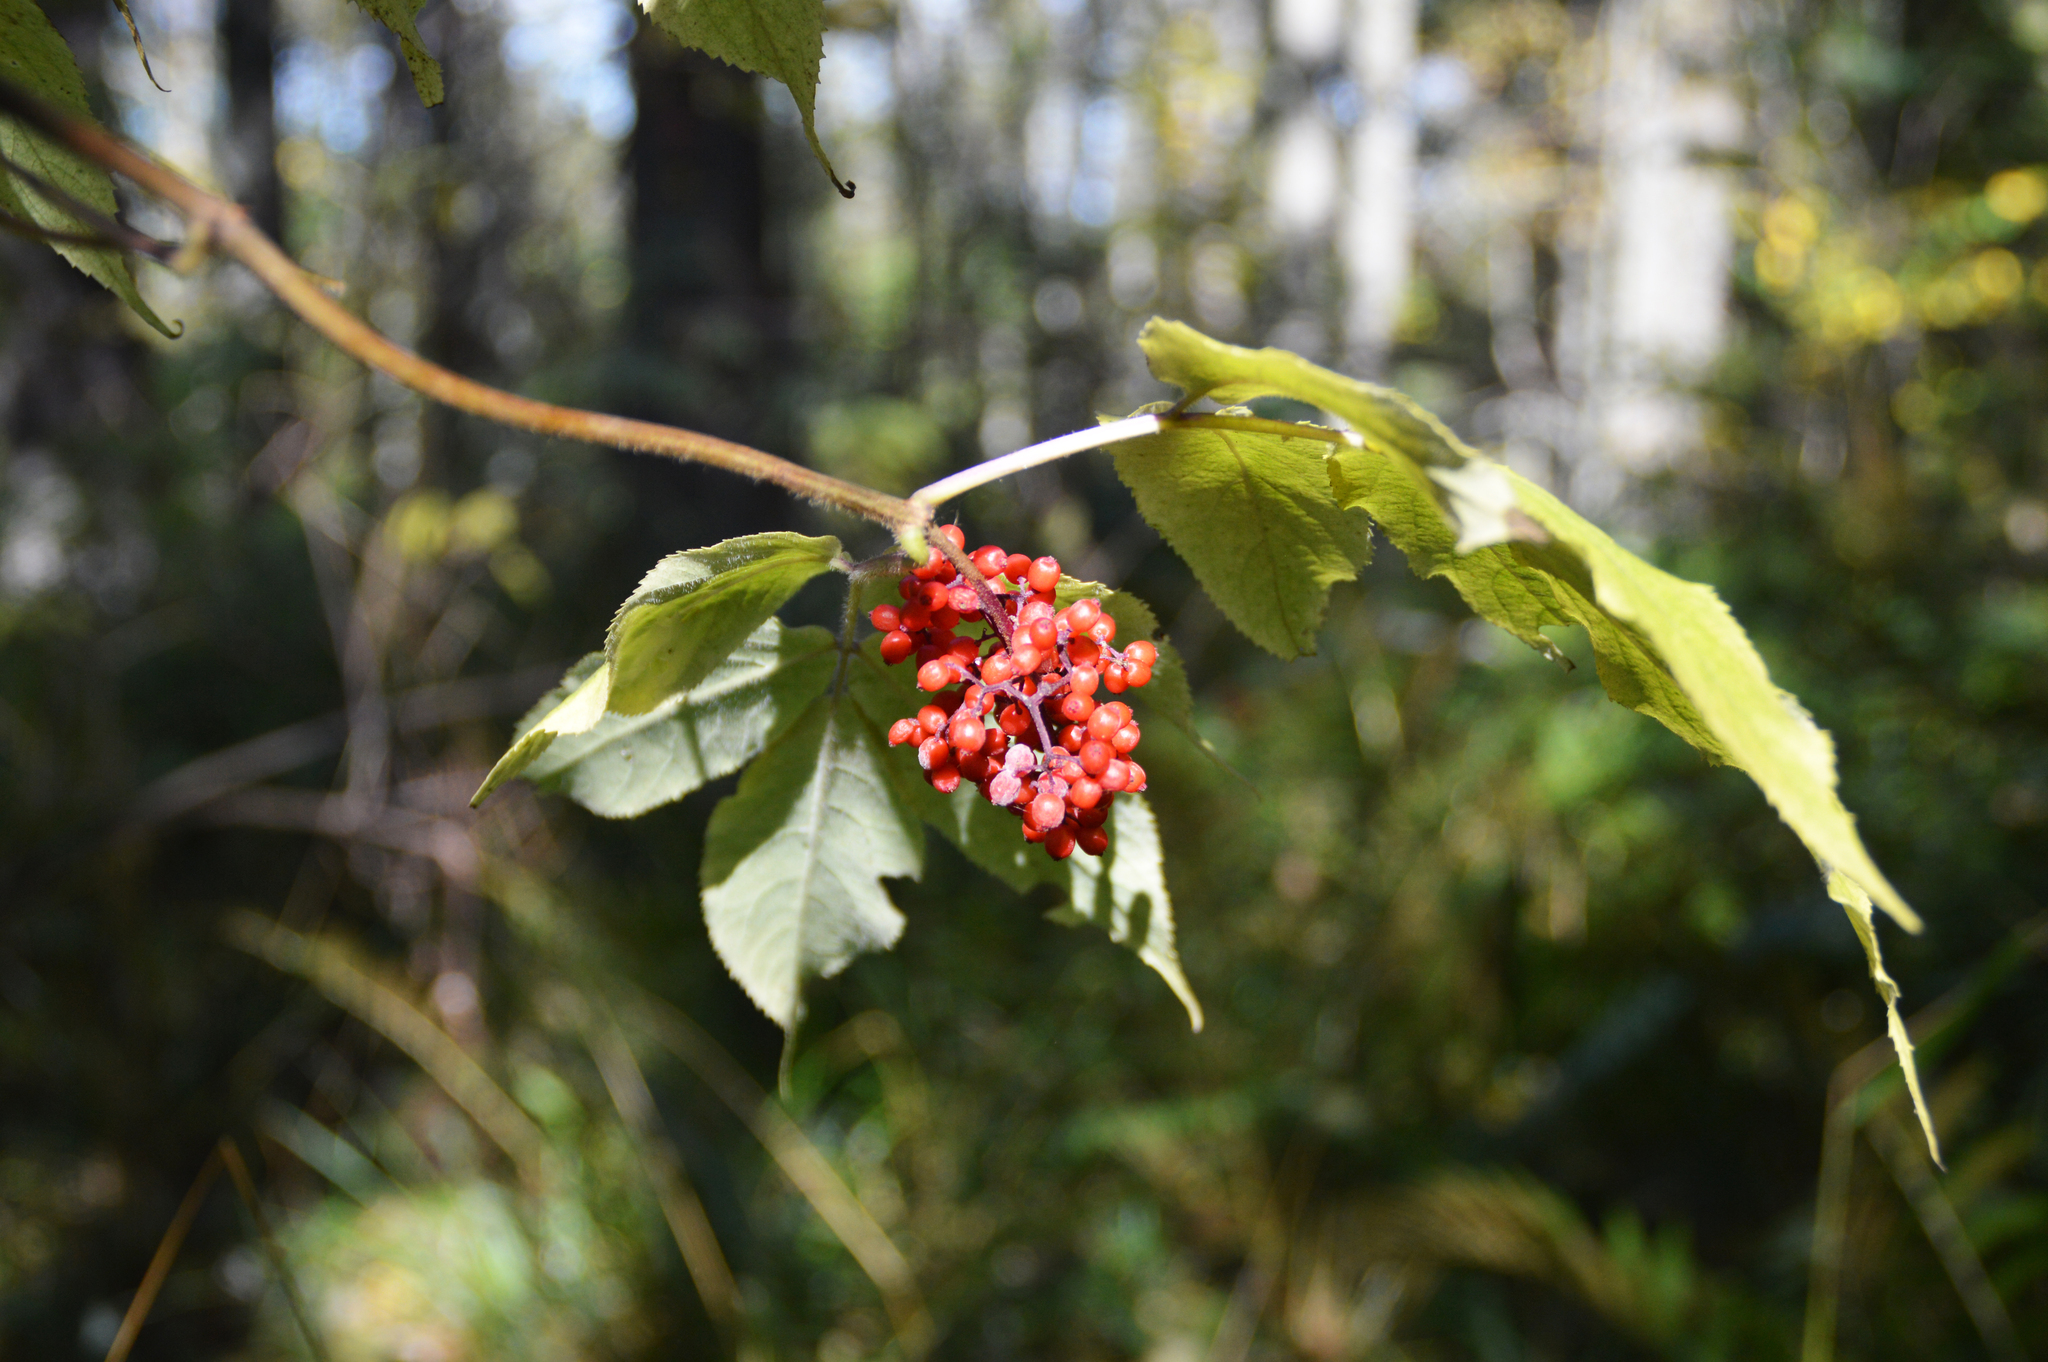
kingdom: Plantae
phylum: Tracheophyta
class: Magnoliopsida
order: Dipsacales
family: Viburnaceae
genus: Sambucus
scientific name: Sambucus sibirica
